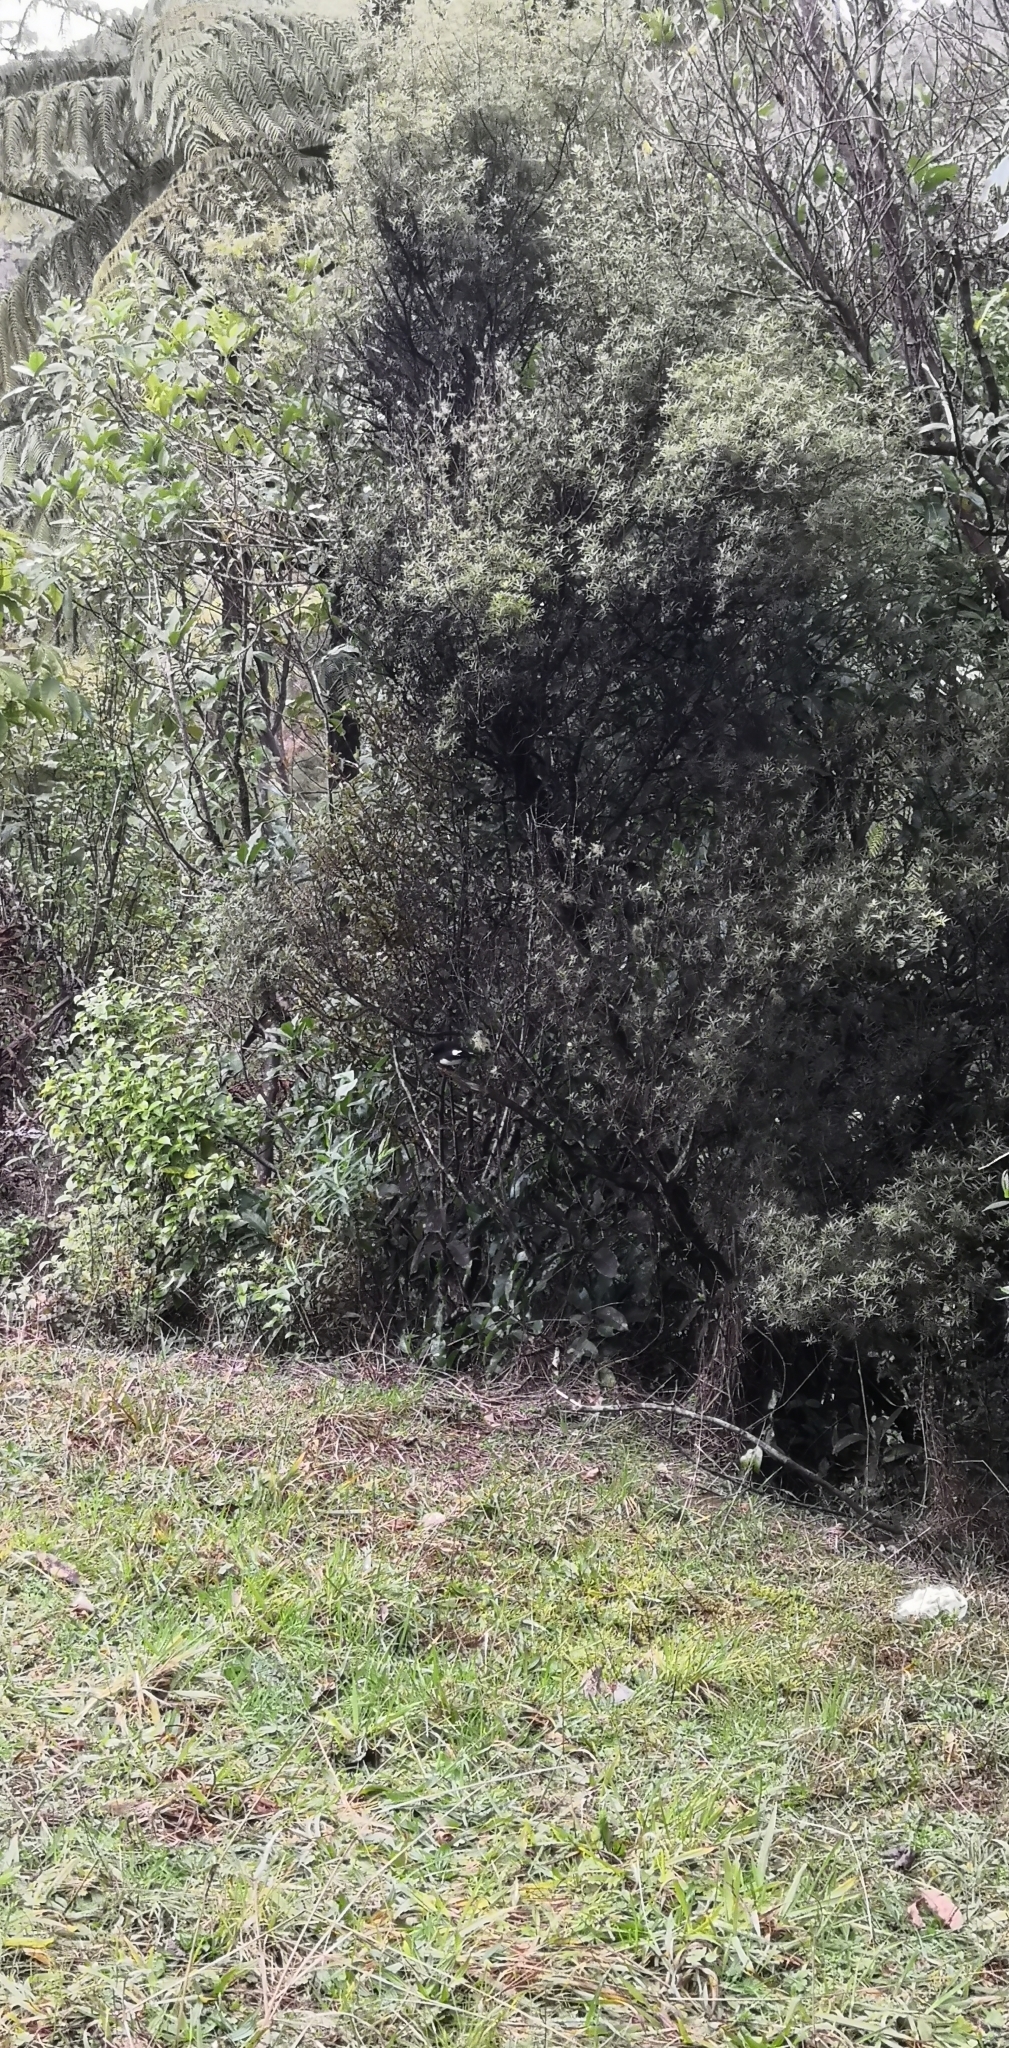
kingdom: Animalia
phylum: Chordata
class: Aves
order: Passeriformes
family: Petroicidae
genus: Petroica
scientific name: Petroica macrocephala
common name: Tomtit
